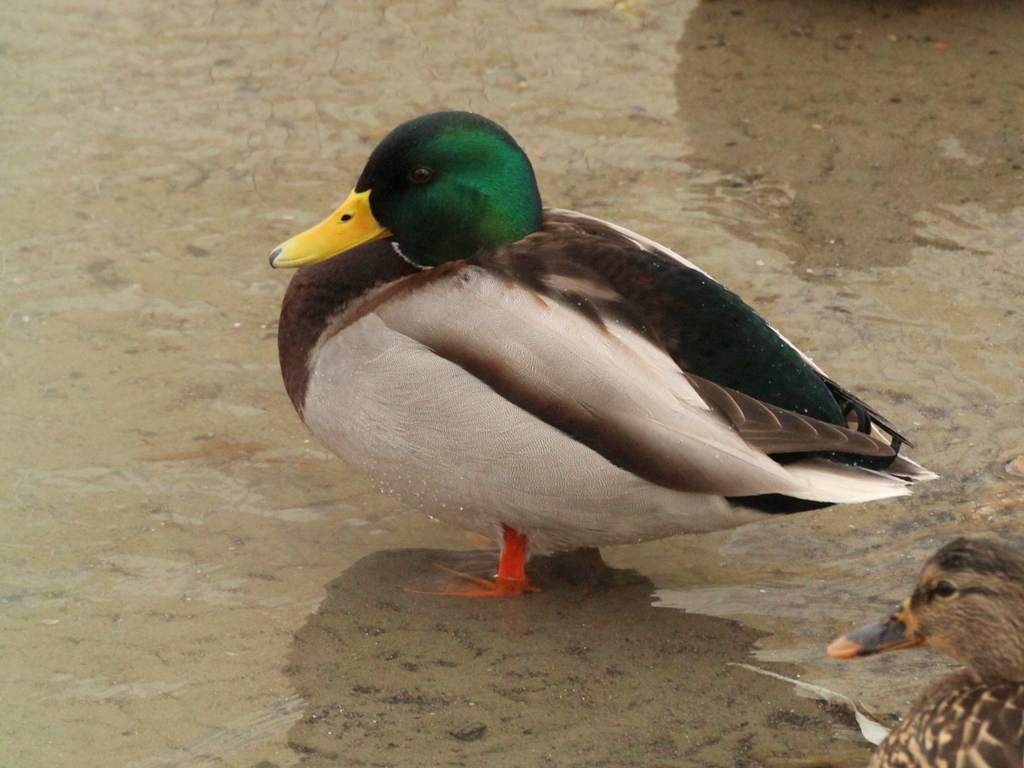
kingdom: Animalia
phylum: Chordata
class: Aves
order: Anseriformes
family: Anatidae
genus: Anas
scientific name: Anas platyrhynchos
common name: Mallard
